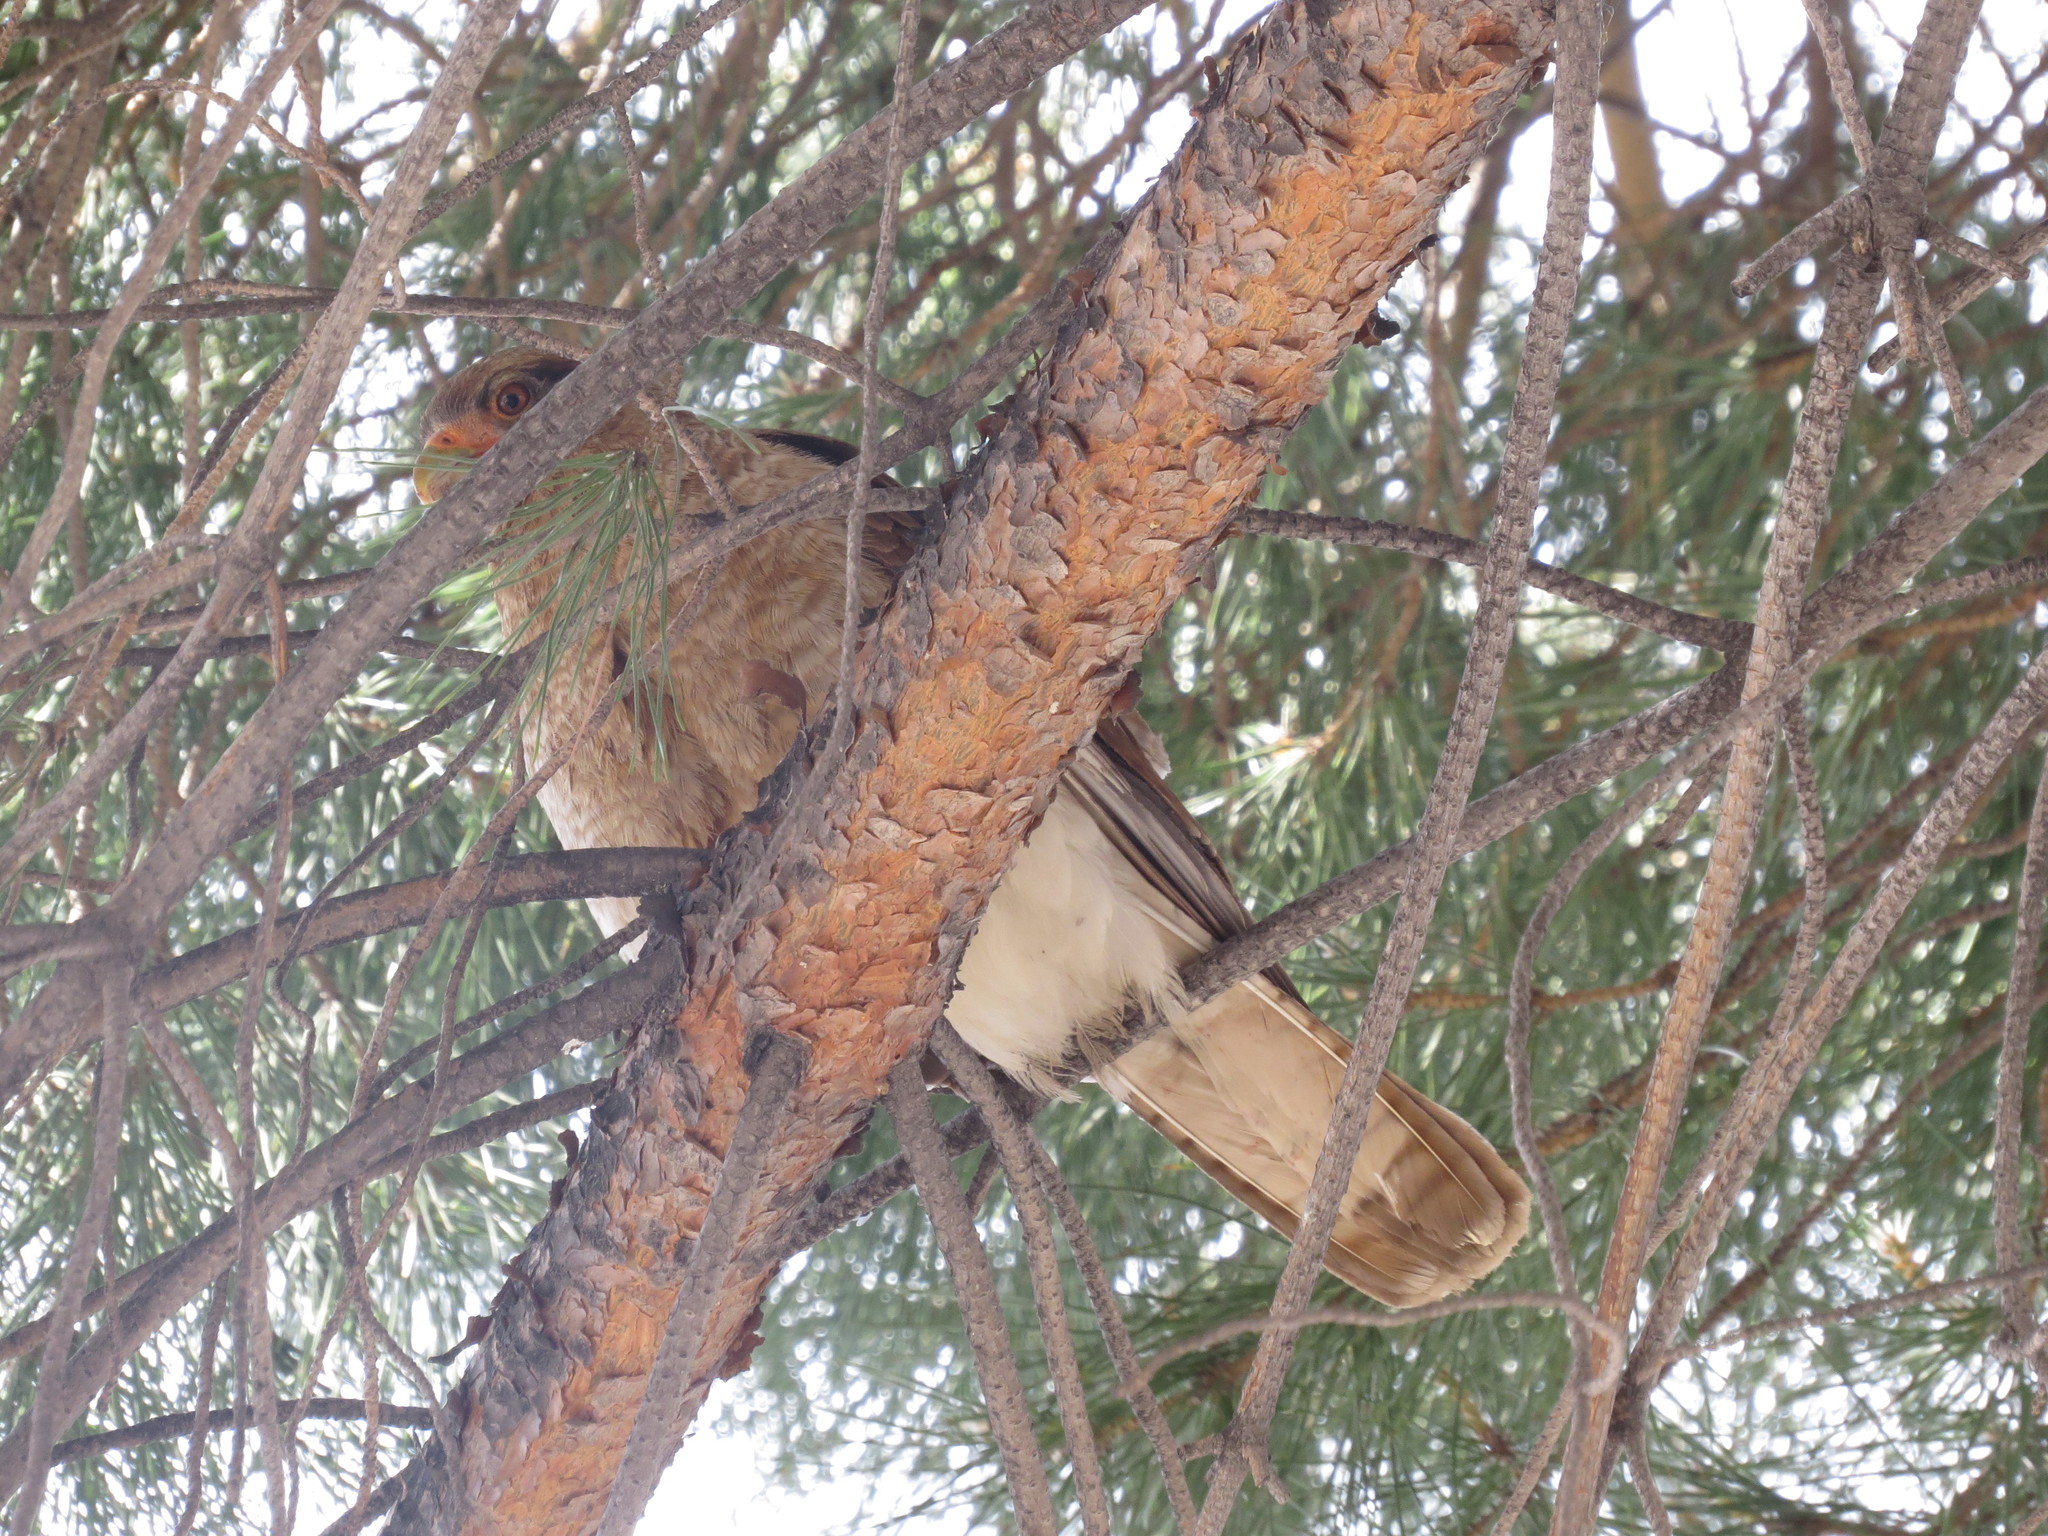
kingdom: Animalia
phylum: Chordata
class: Aves
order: Falconiformes
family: Falconidae
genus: Daptrius
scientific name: Daptrius
